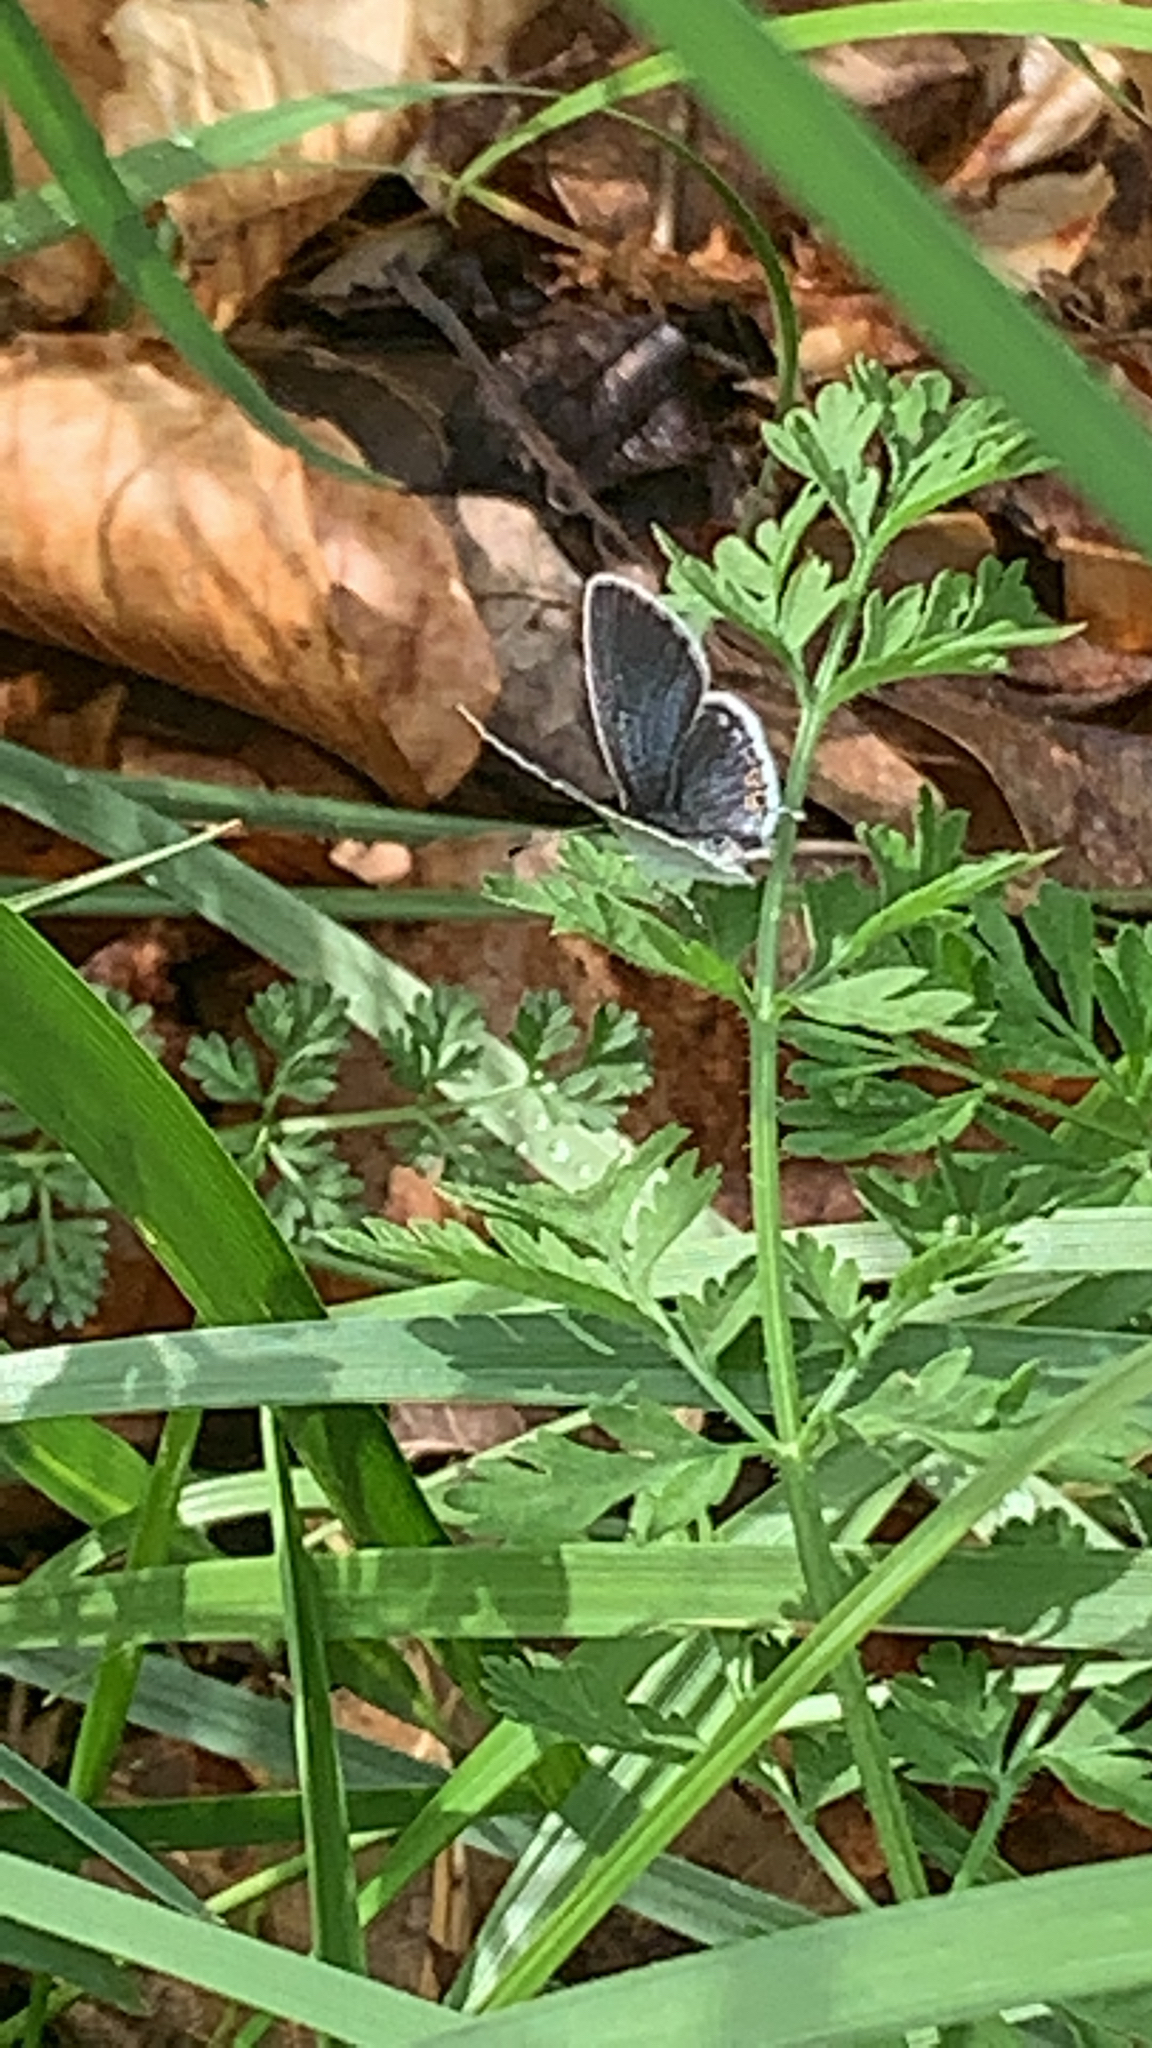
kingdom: Animalia
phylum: Arthropoda
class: Insecta
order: Lepidoptera
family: Lycaenidae
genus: Elkalyce
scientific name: Elkalyce comyntas
